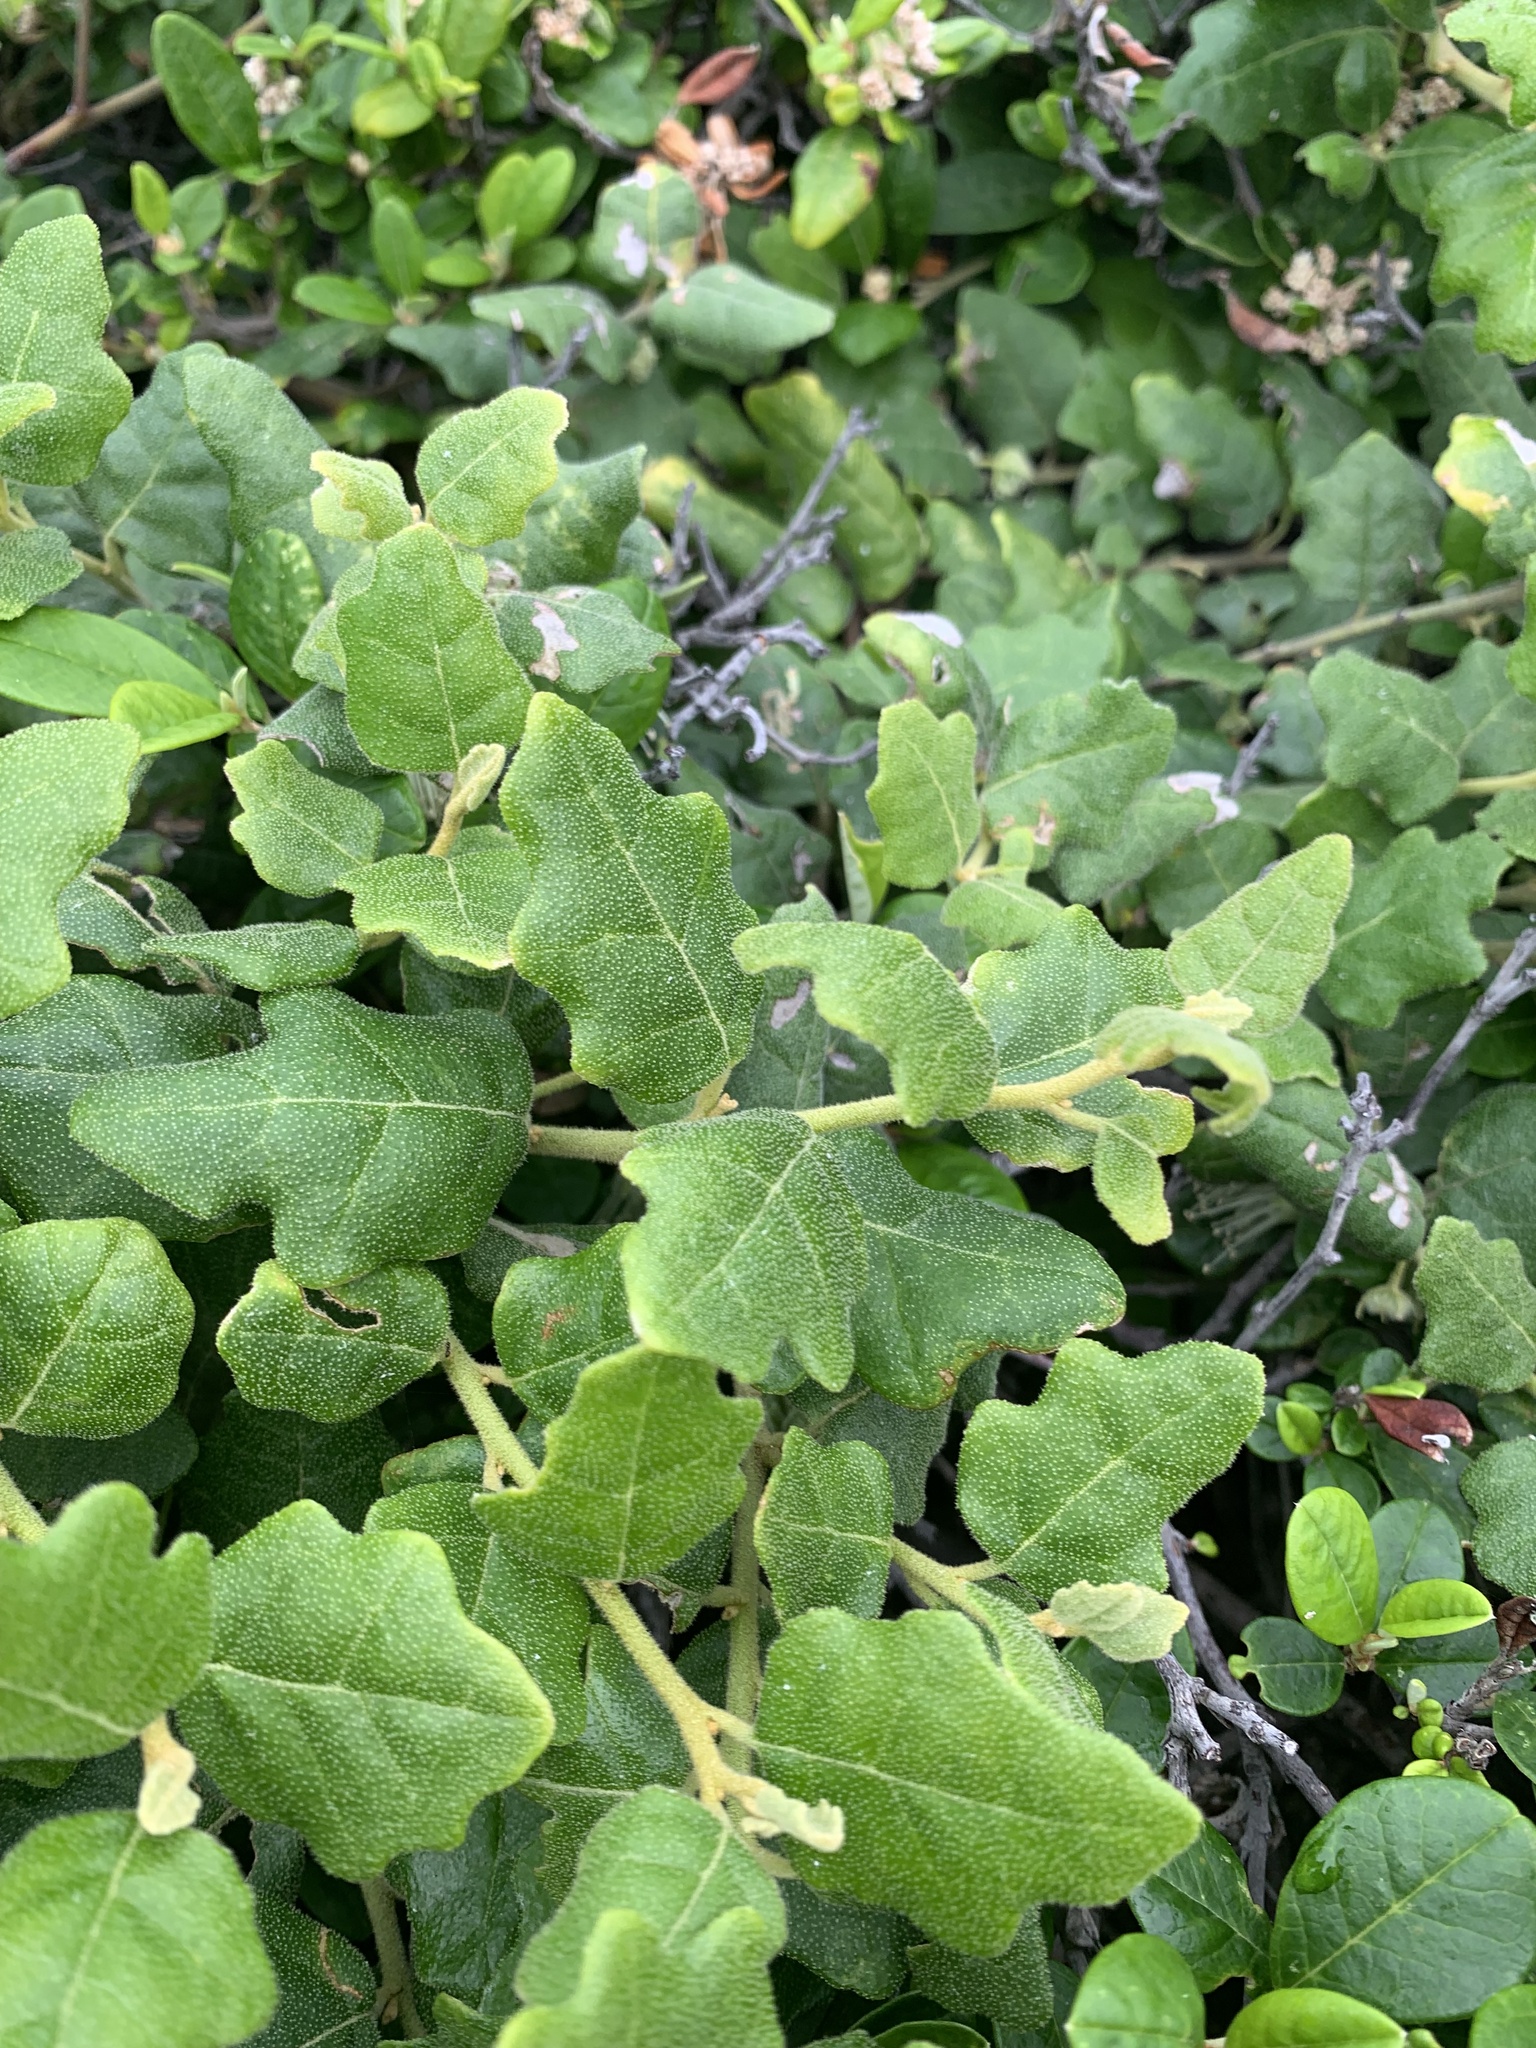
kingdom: Plantae
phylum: Tracheophyta
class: Magnoliopsida
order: Sapindales
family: Rutaceae
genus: Chorilaena
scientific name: Chorilaena quercifolia
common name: Wild hop
